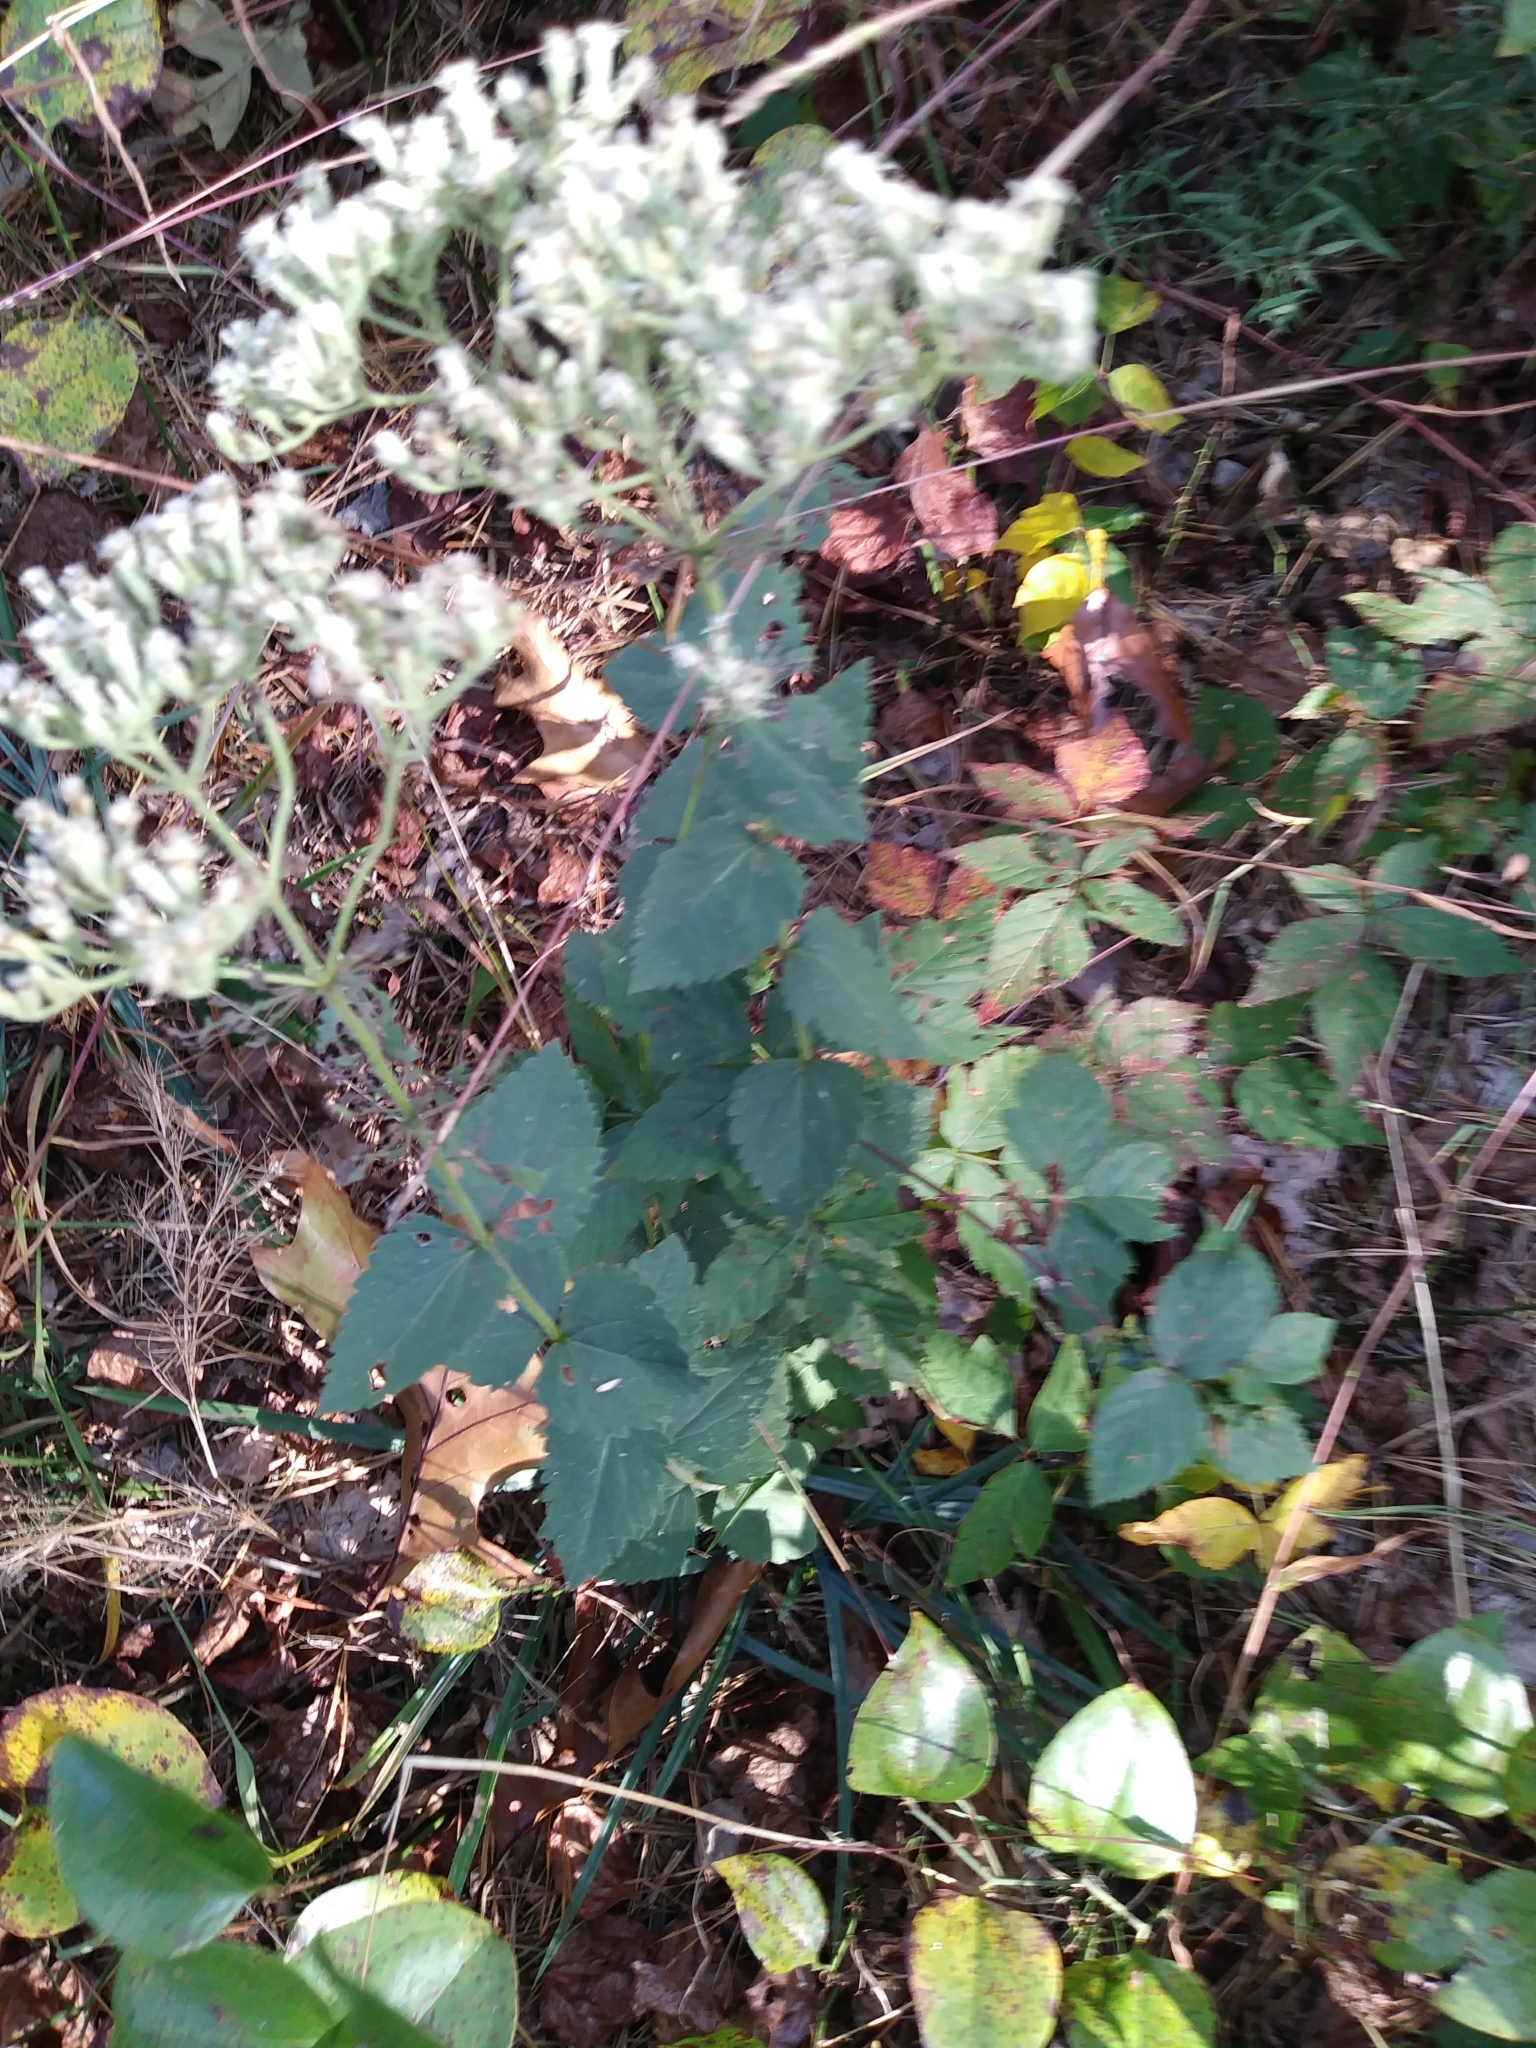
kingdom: Plantae
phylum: Tracheophyta
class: Magnoliopsida
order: Asterales
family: Asteraceae
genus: Ageratina
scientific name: Ageratina aromatica
